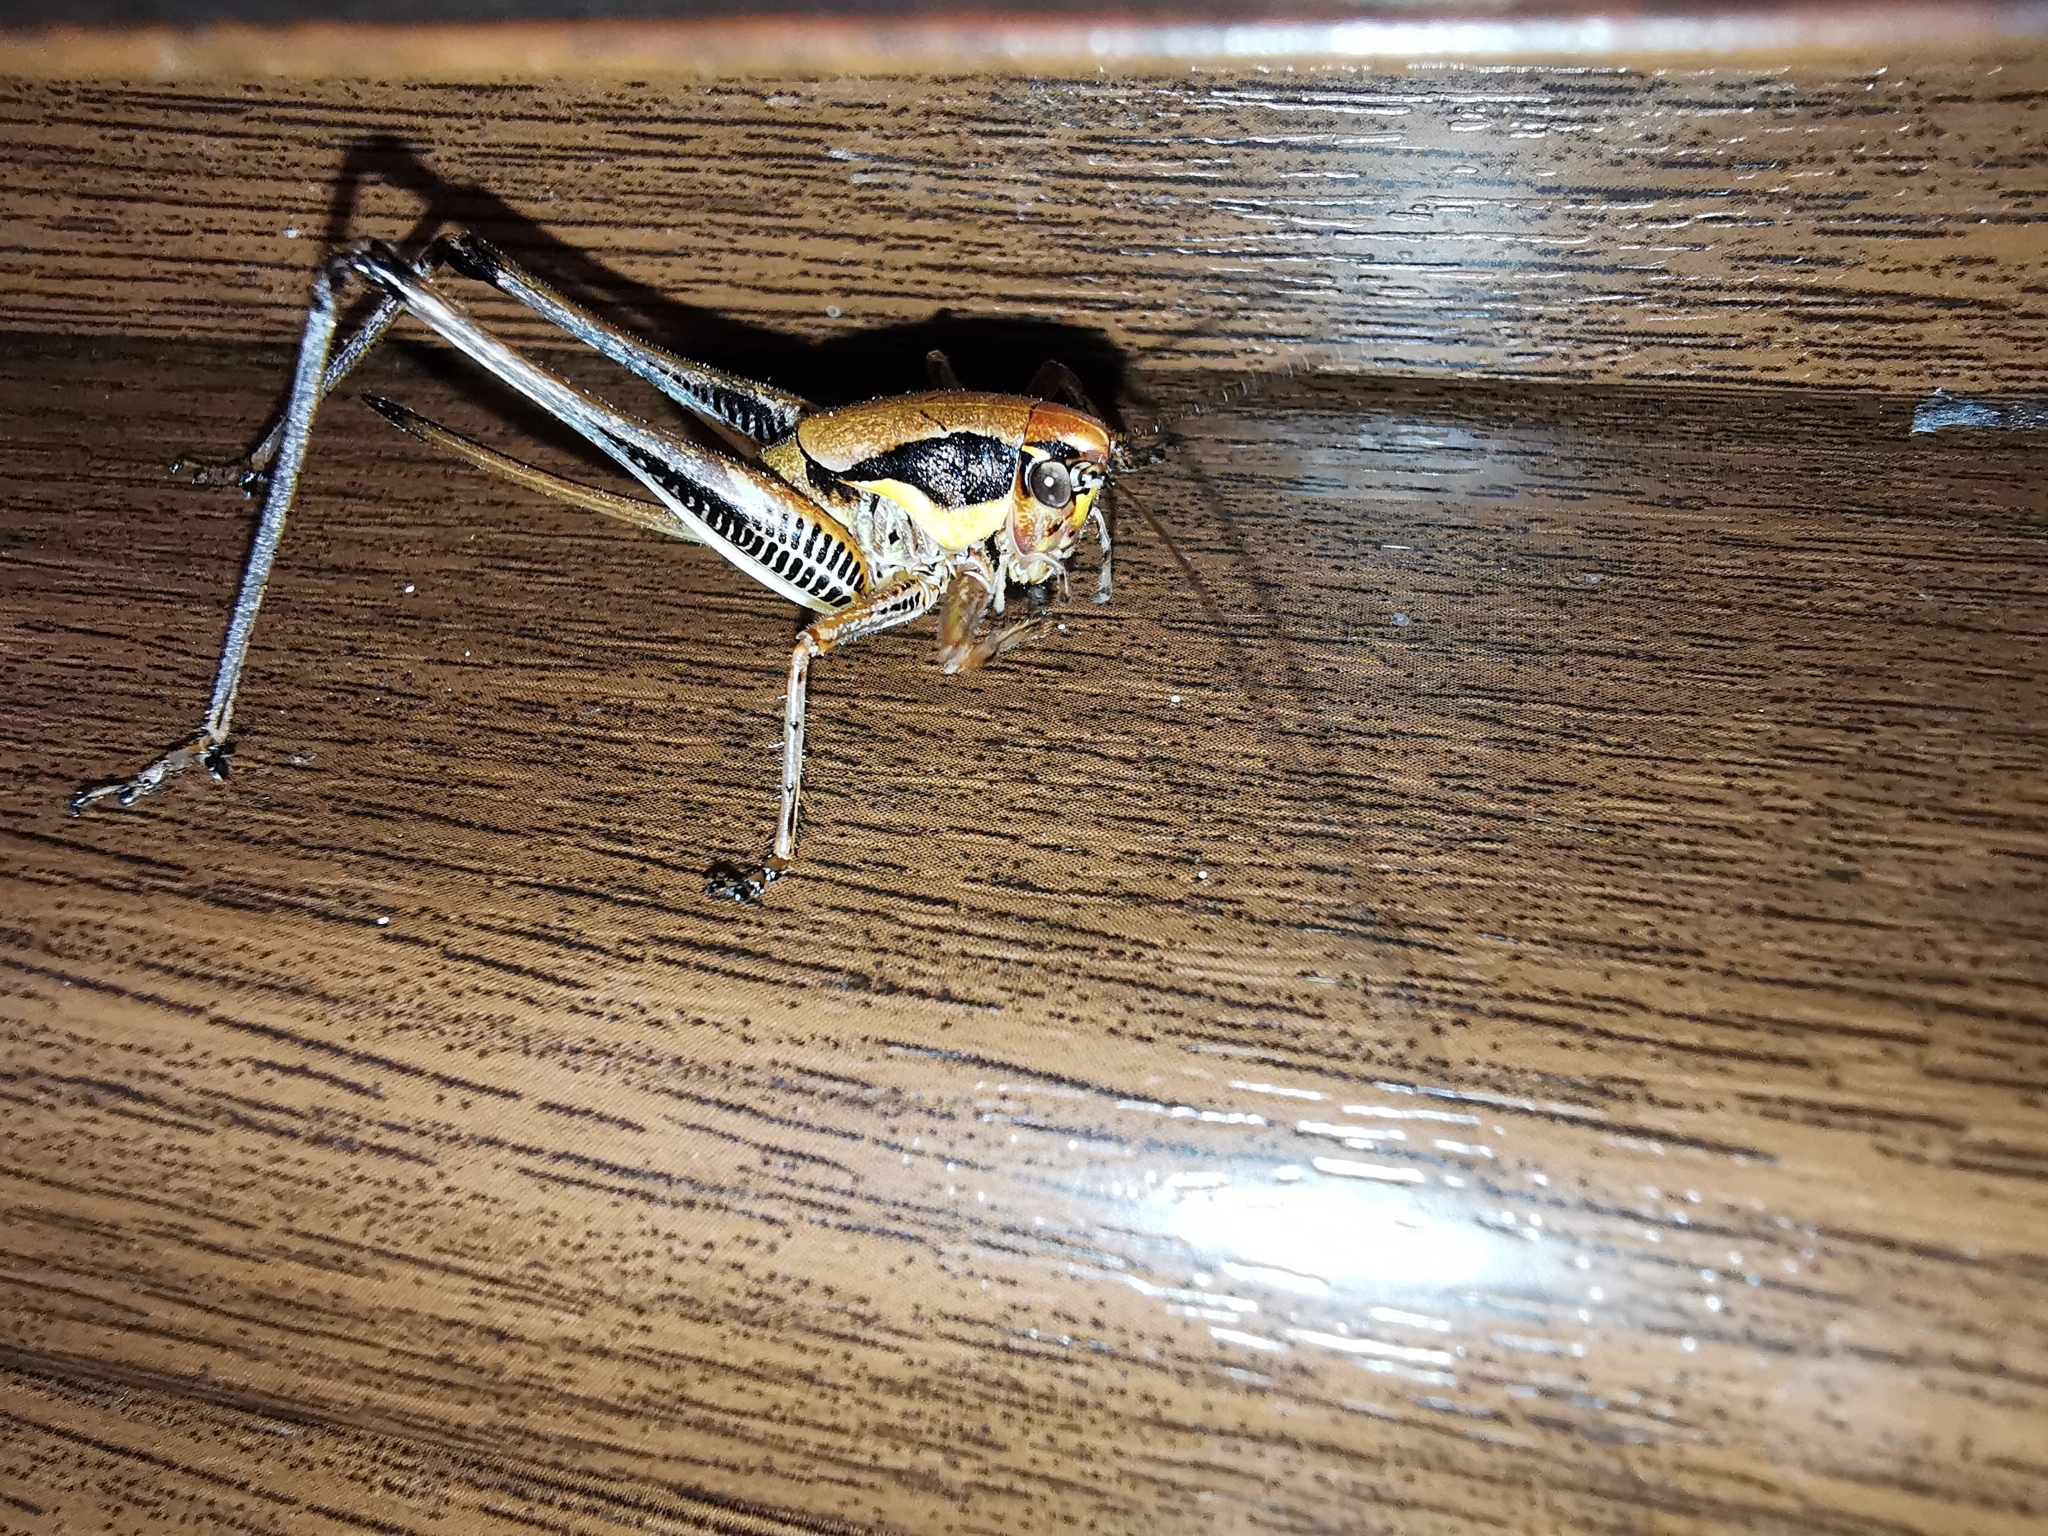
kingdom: Animalia
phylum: Arthropoda
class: Insecta
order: Orthoptera
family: Tettigoniidae
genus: Eupholidoptera
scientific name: Eupholidoptera megastyla
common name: Greek marbled bush-cricket
